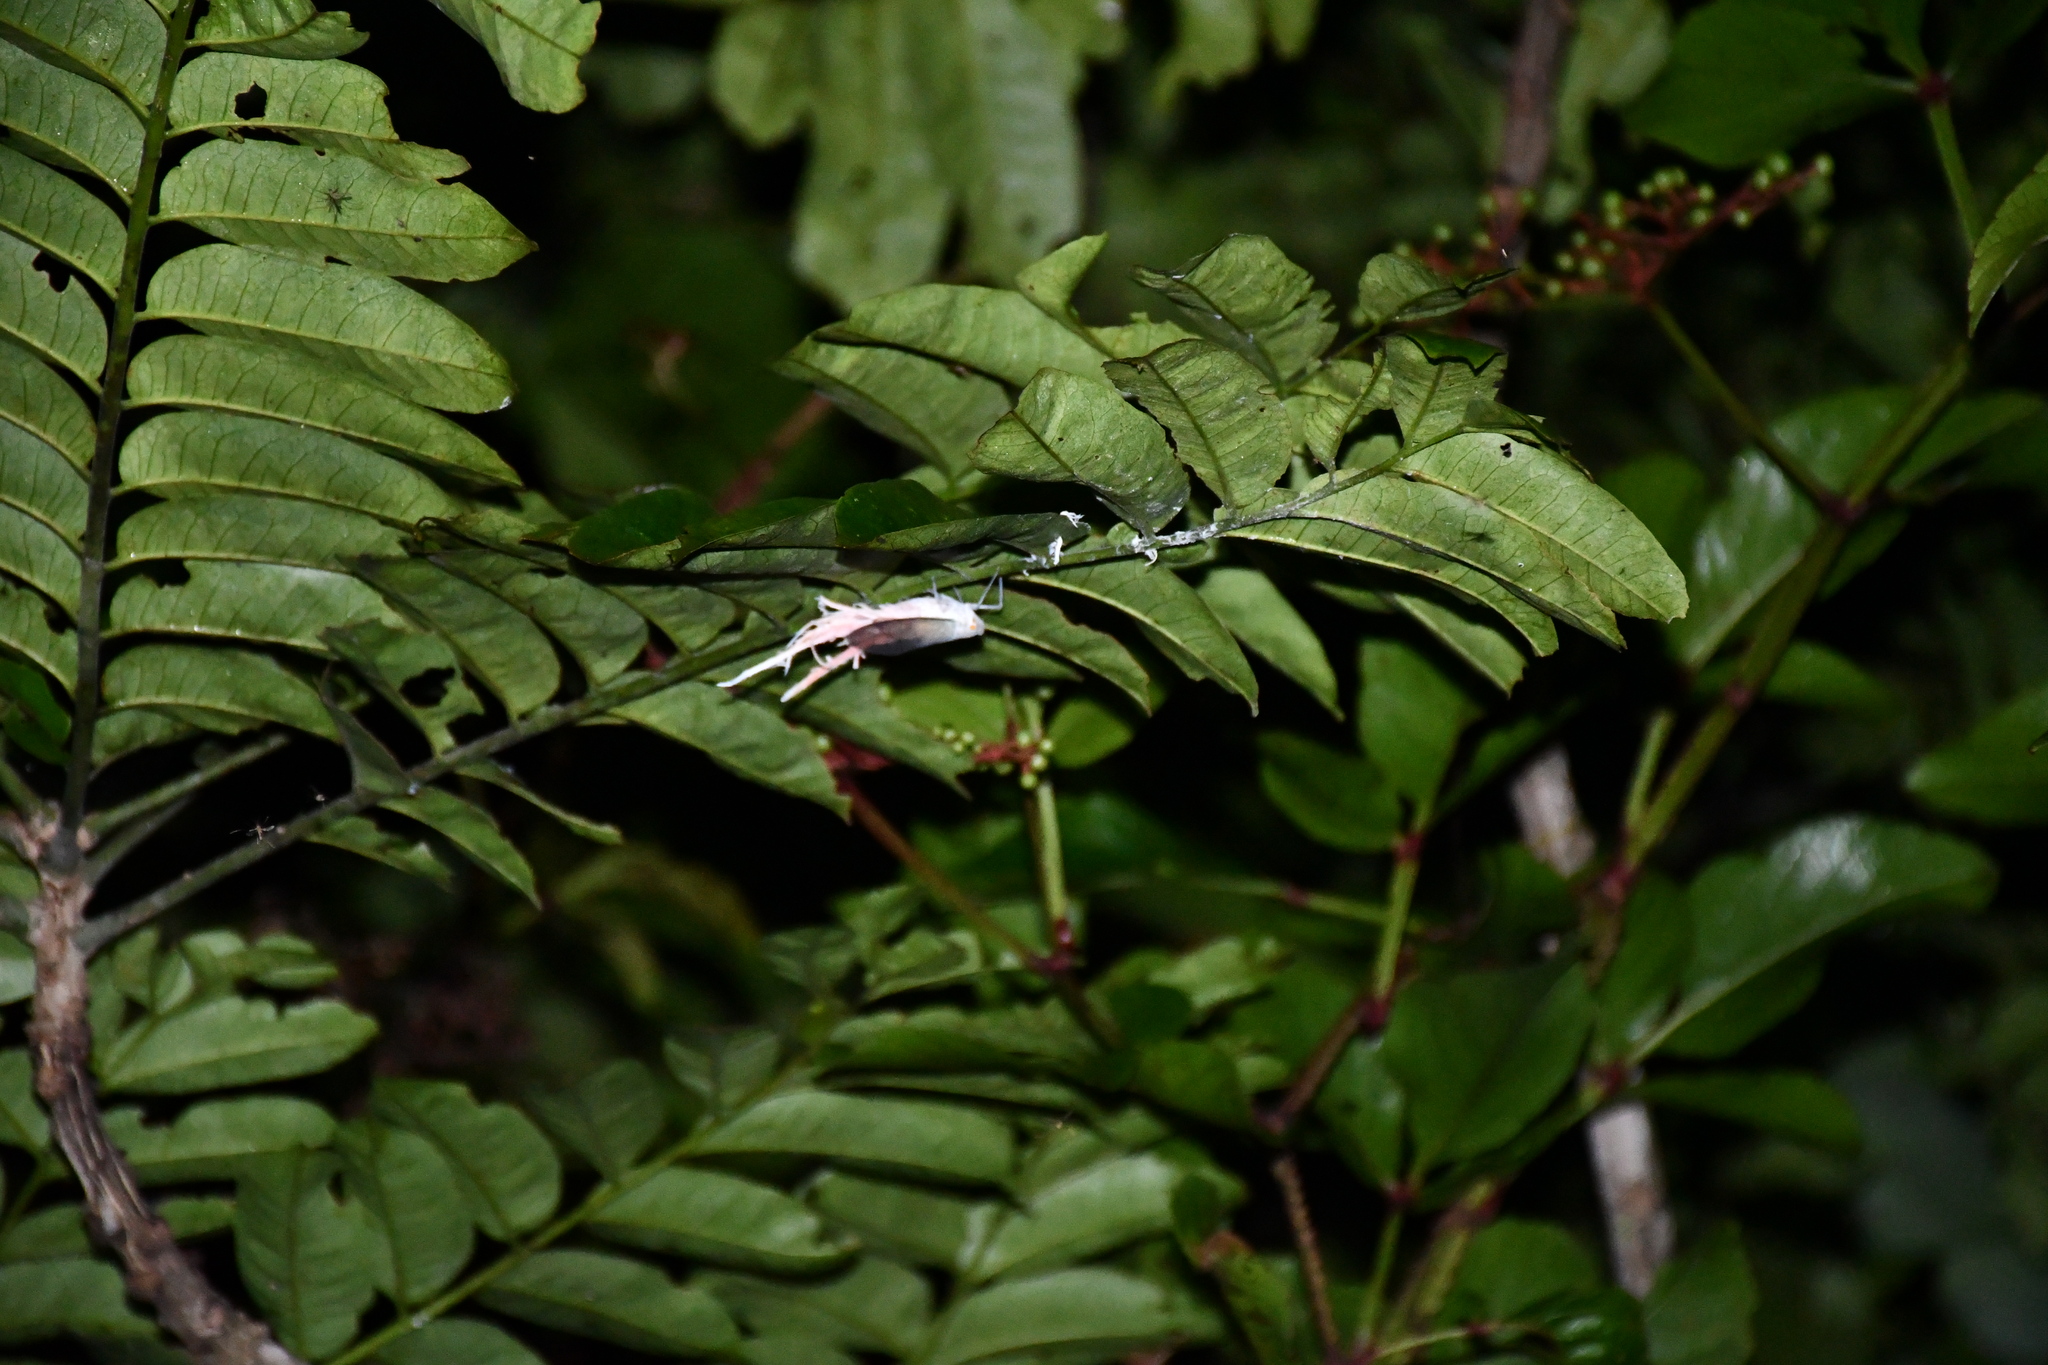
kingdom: Animalia
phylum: Arthropoda
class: Insecta
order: Hemiptera
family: Fulgoridae
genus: Pterodictya
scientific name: Pterodictya reticularis
